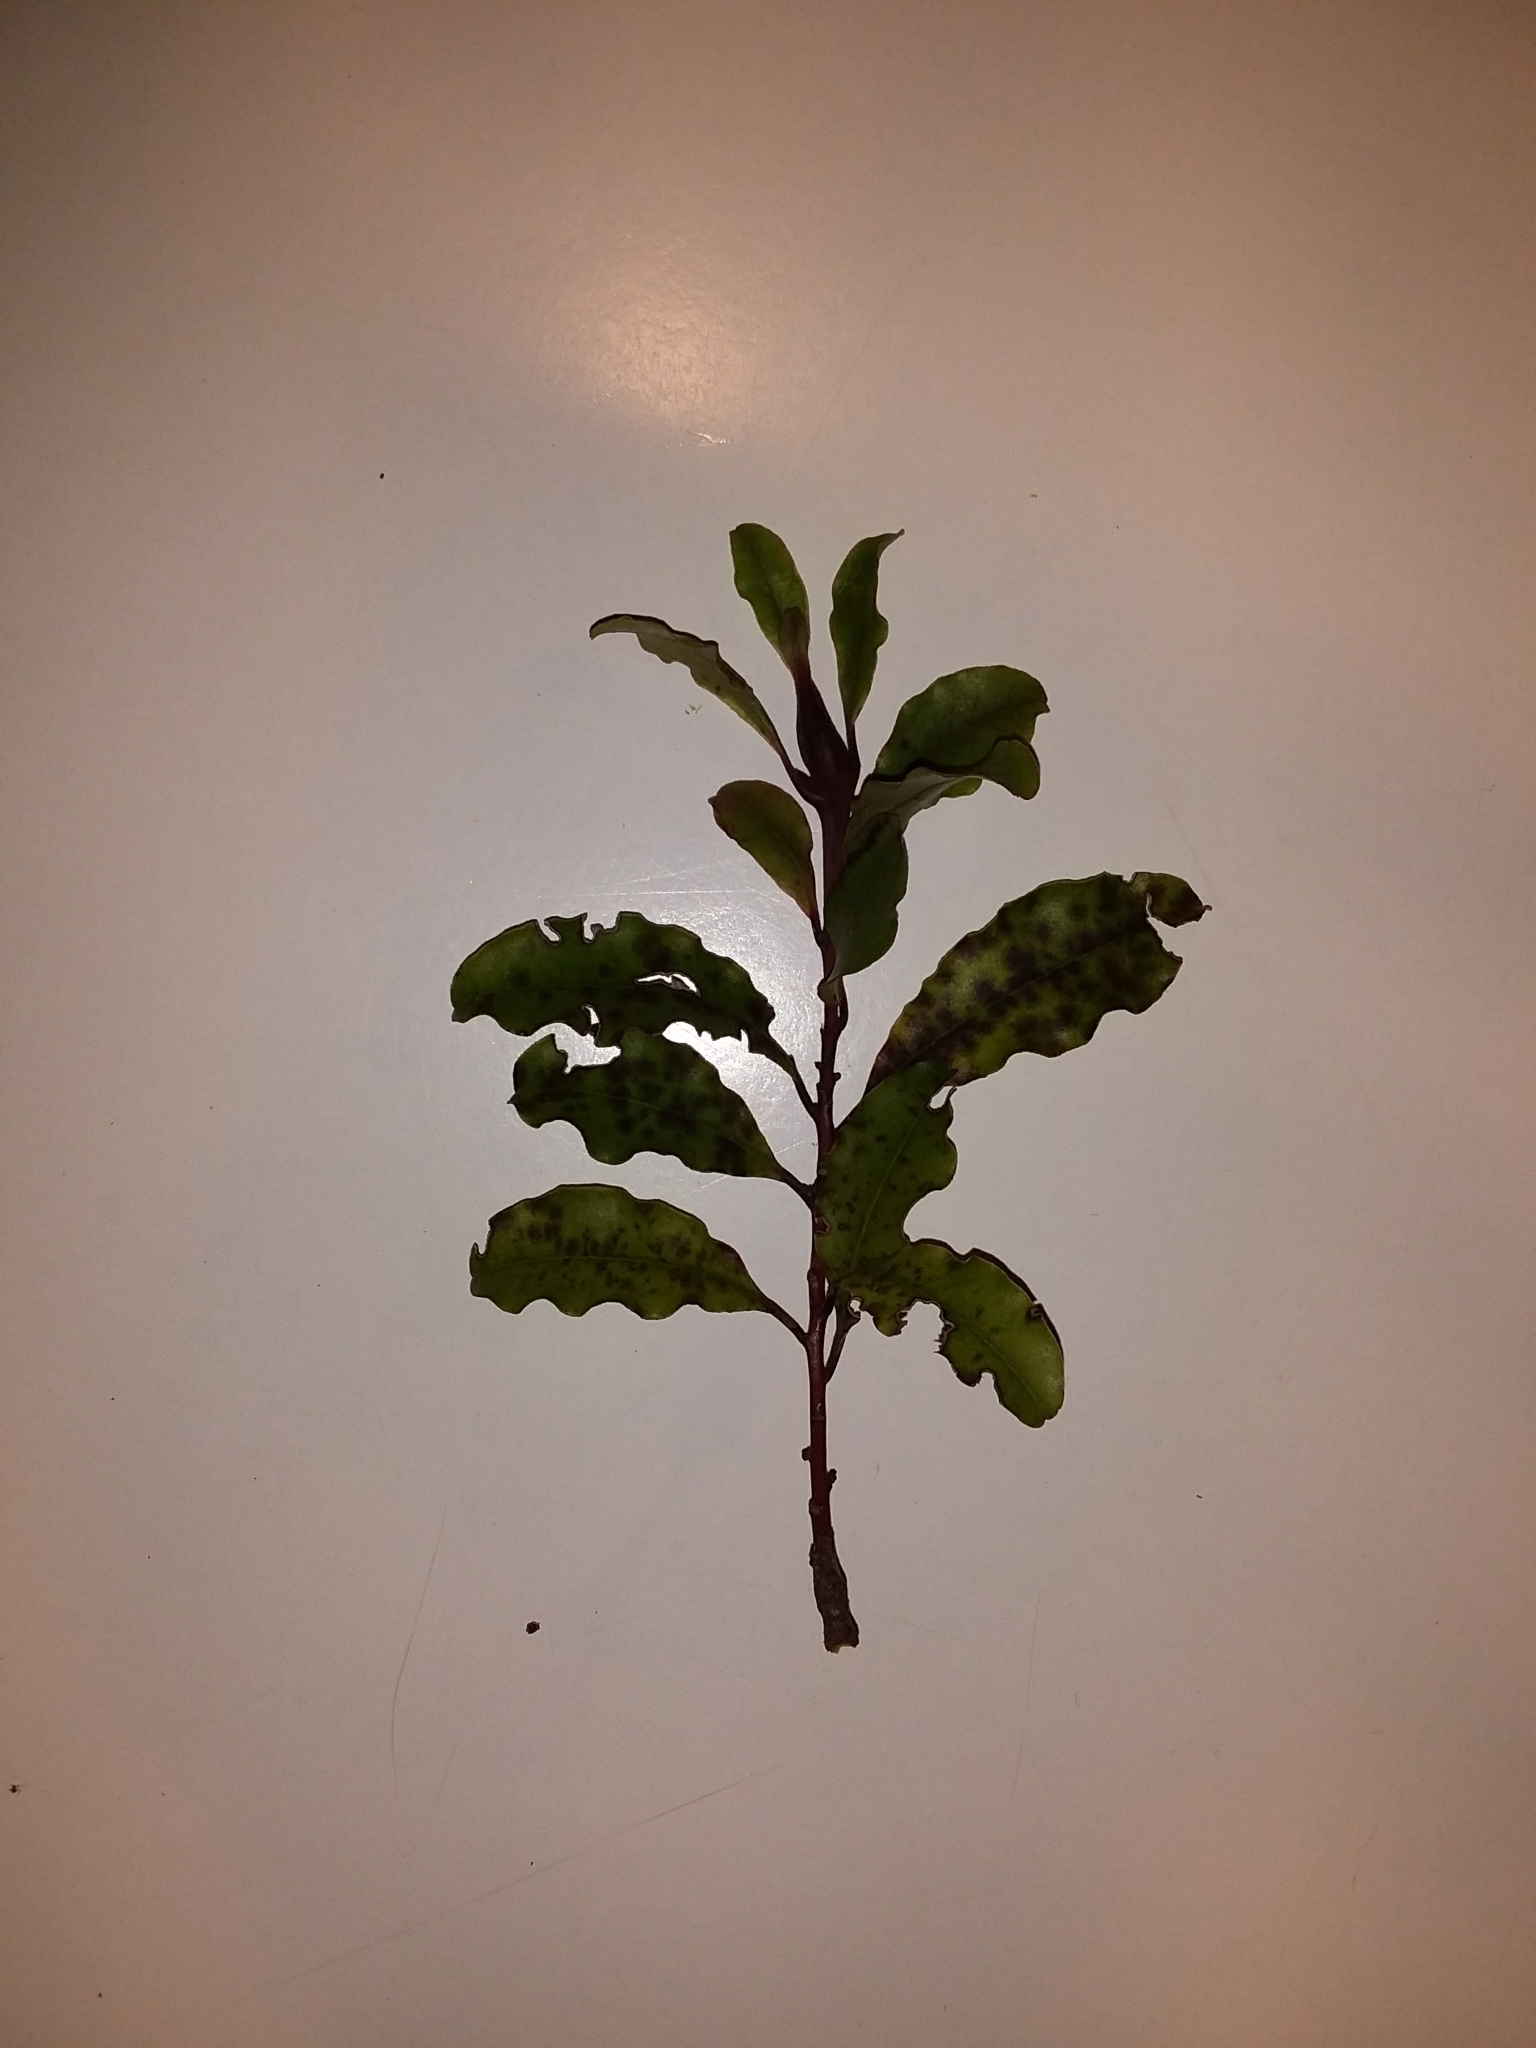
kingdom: Plantae
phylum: Tracheophyta
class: Magnoliopsida
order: Ericales
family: Primulaceae
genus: Myrsine
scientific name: Myrsine australis
